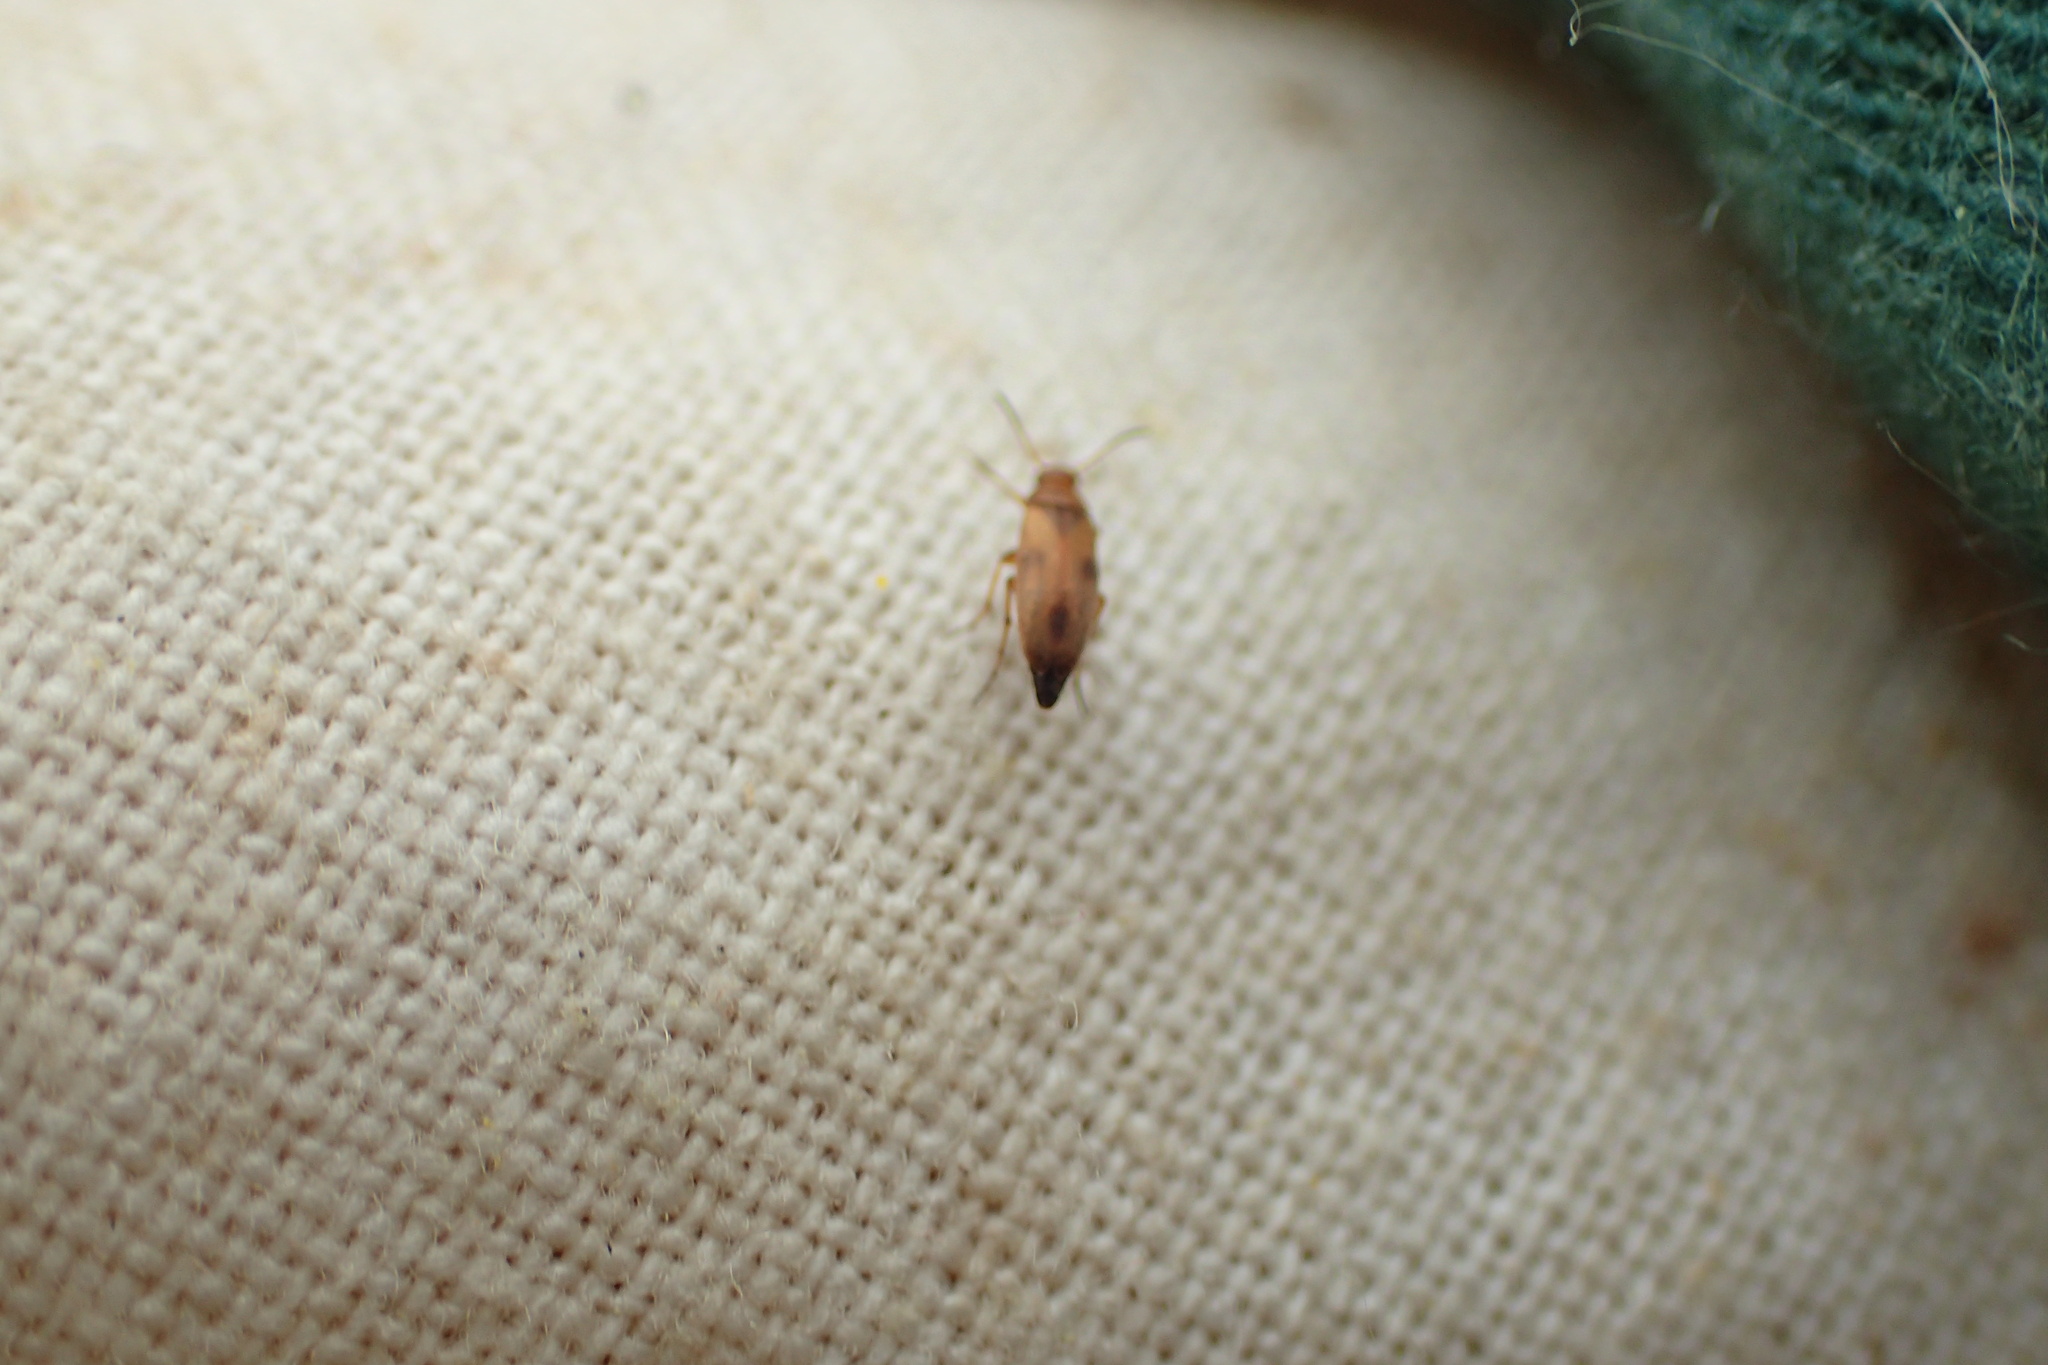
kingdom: Animalia
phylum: Arthropoda
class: Insecta
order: Coleoptera
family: Scraptiidae
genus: Anaspis
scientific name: Anaspis maculata
